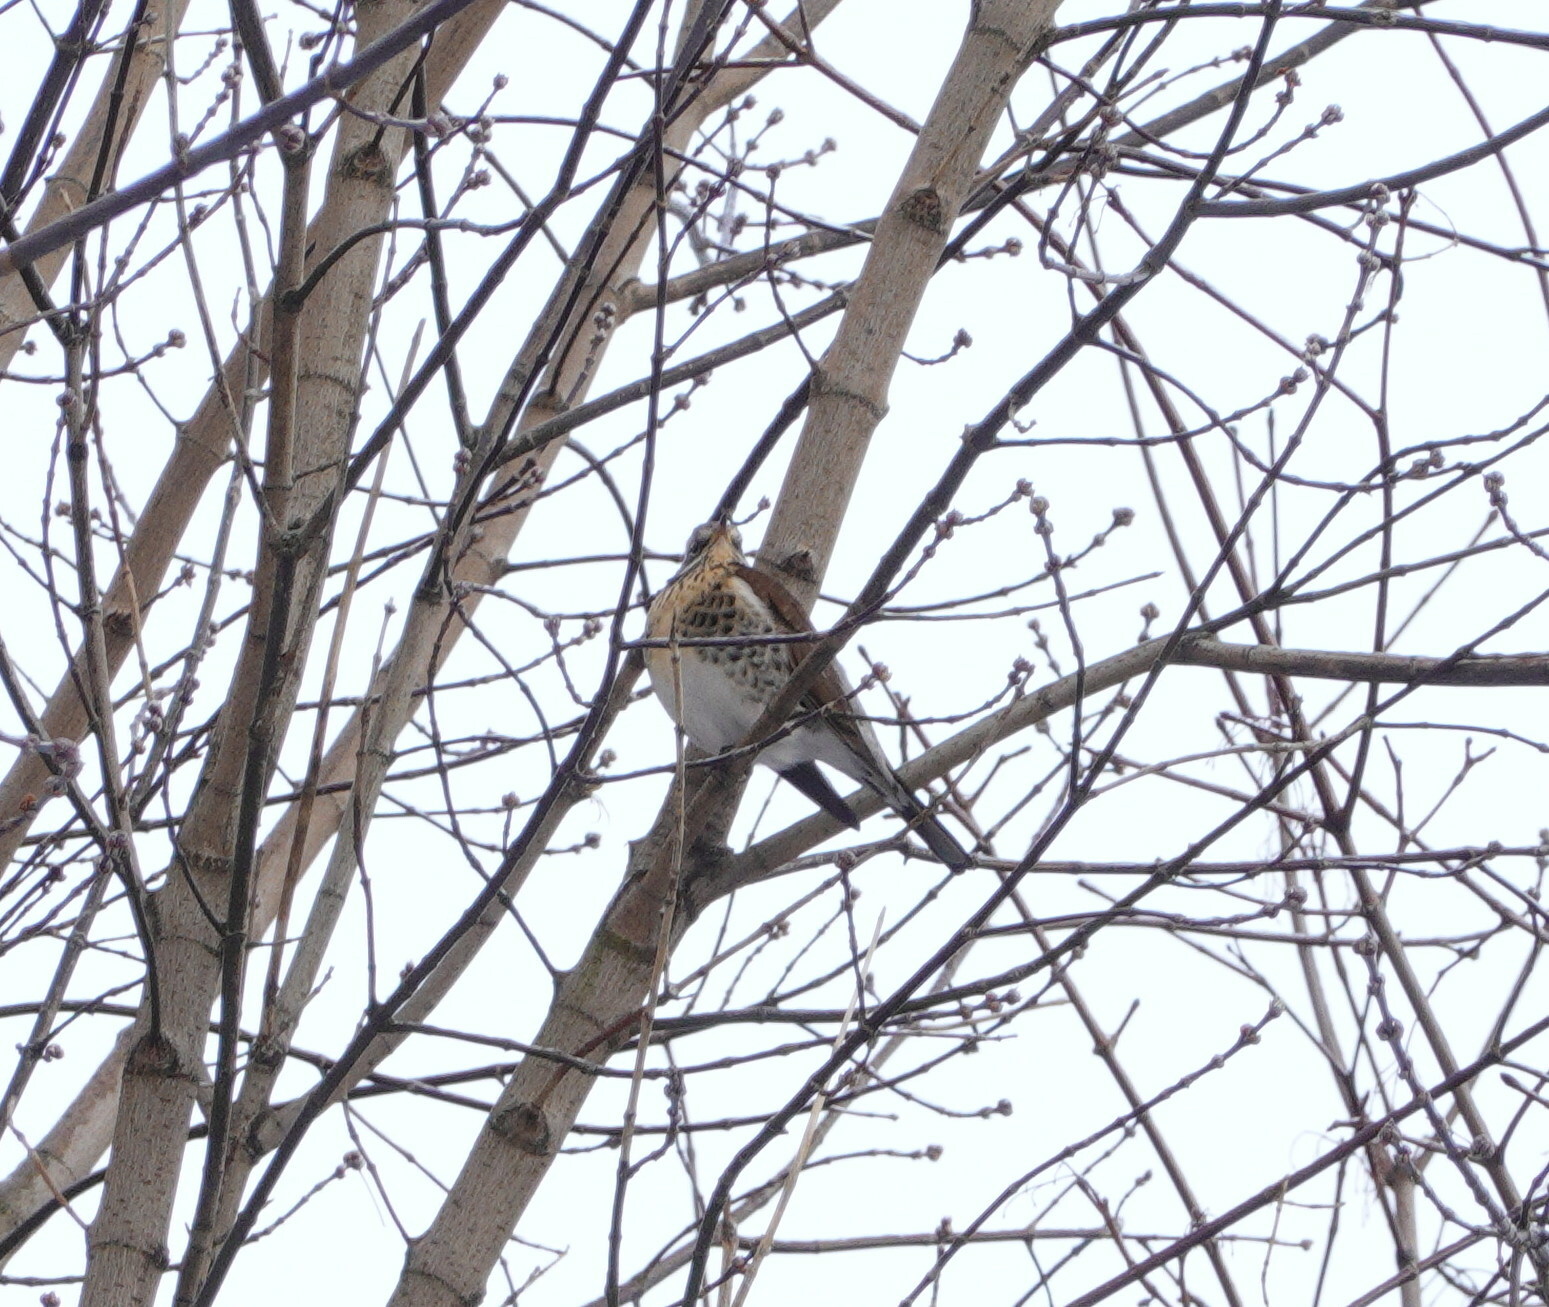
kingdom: Animalia
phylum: Chordata
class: Aves
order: Passeriformes
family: Turdidae
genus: Turdus
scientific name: Turdus pilaris
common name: Fieldfare
